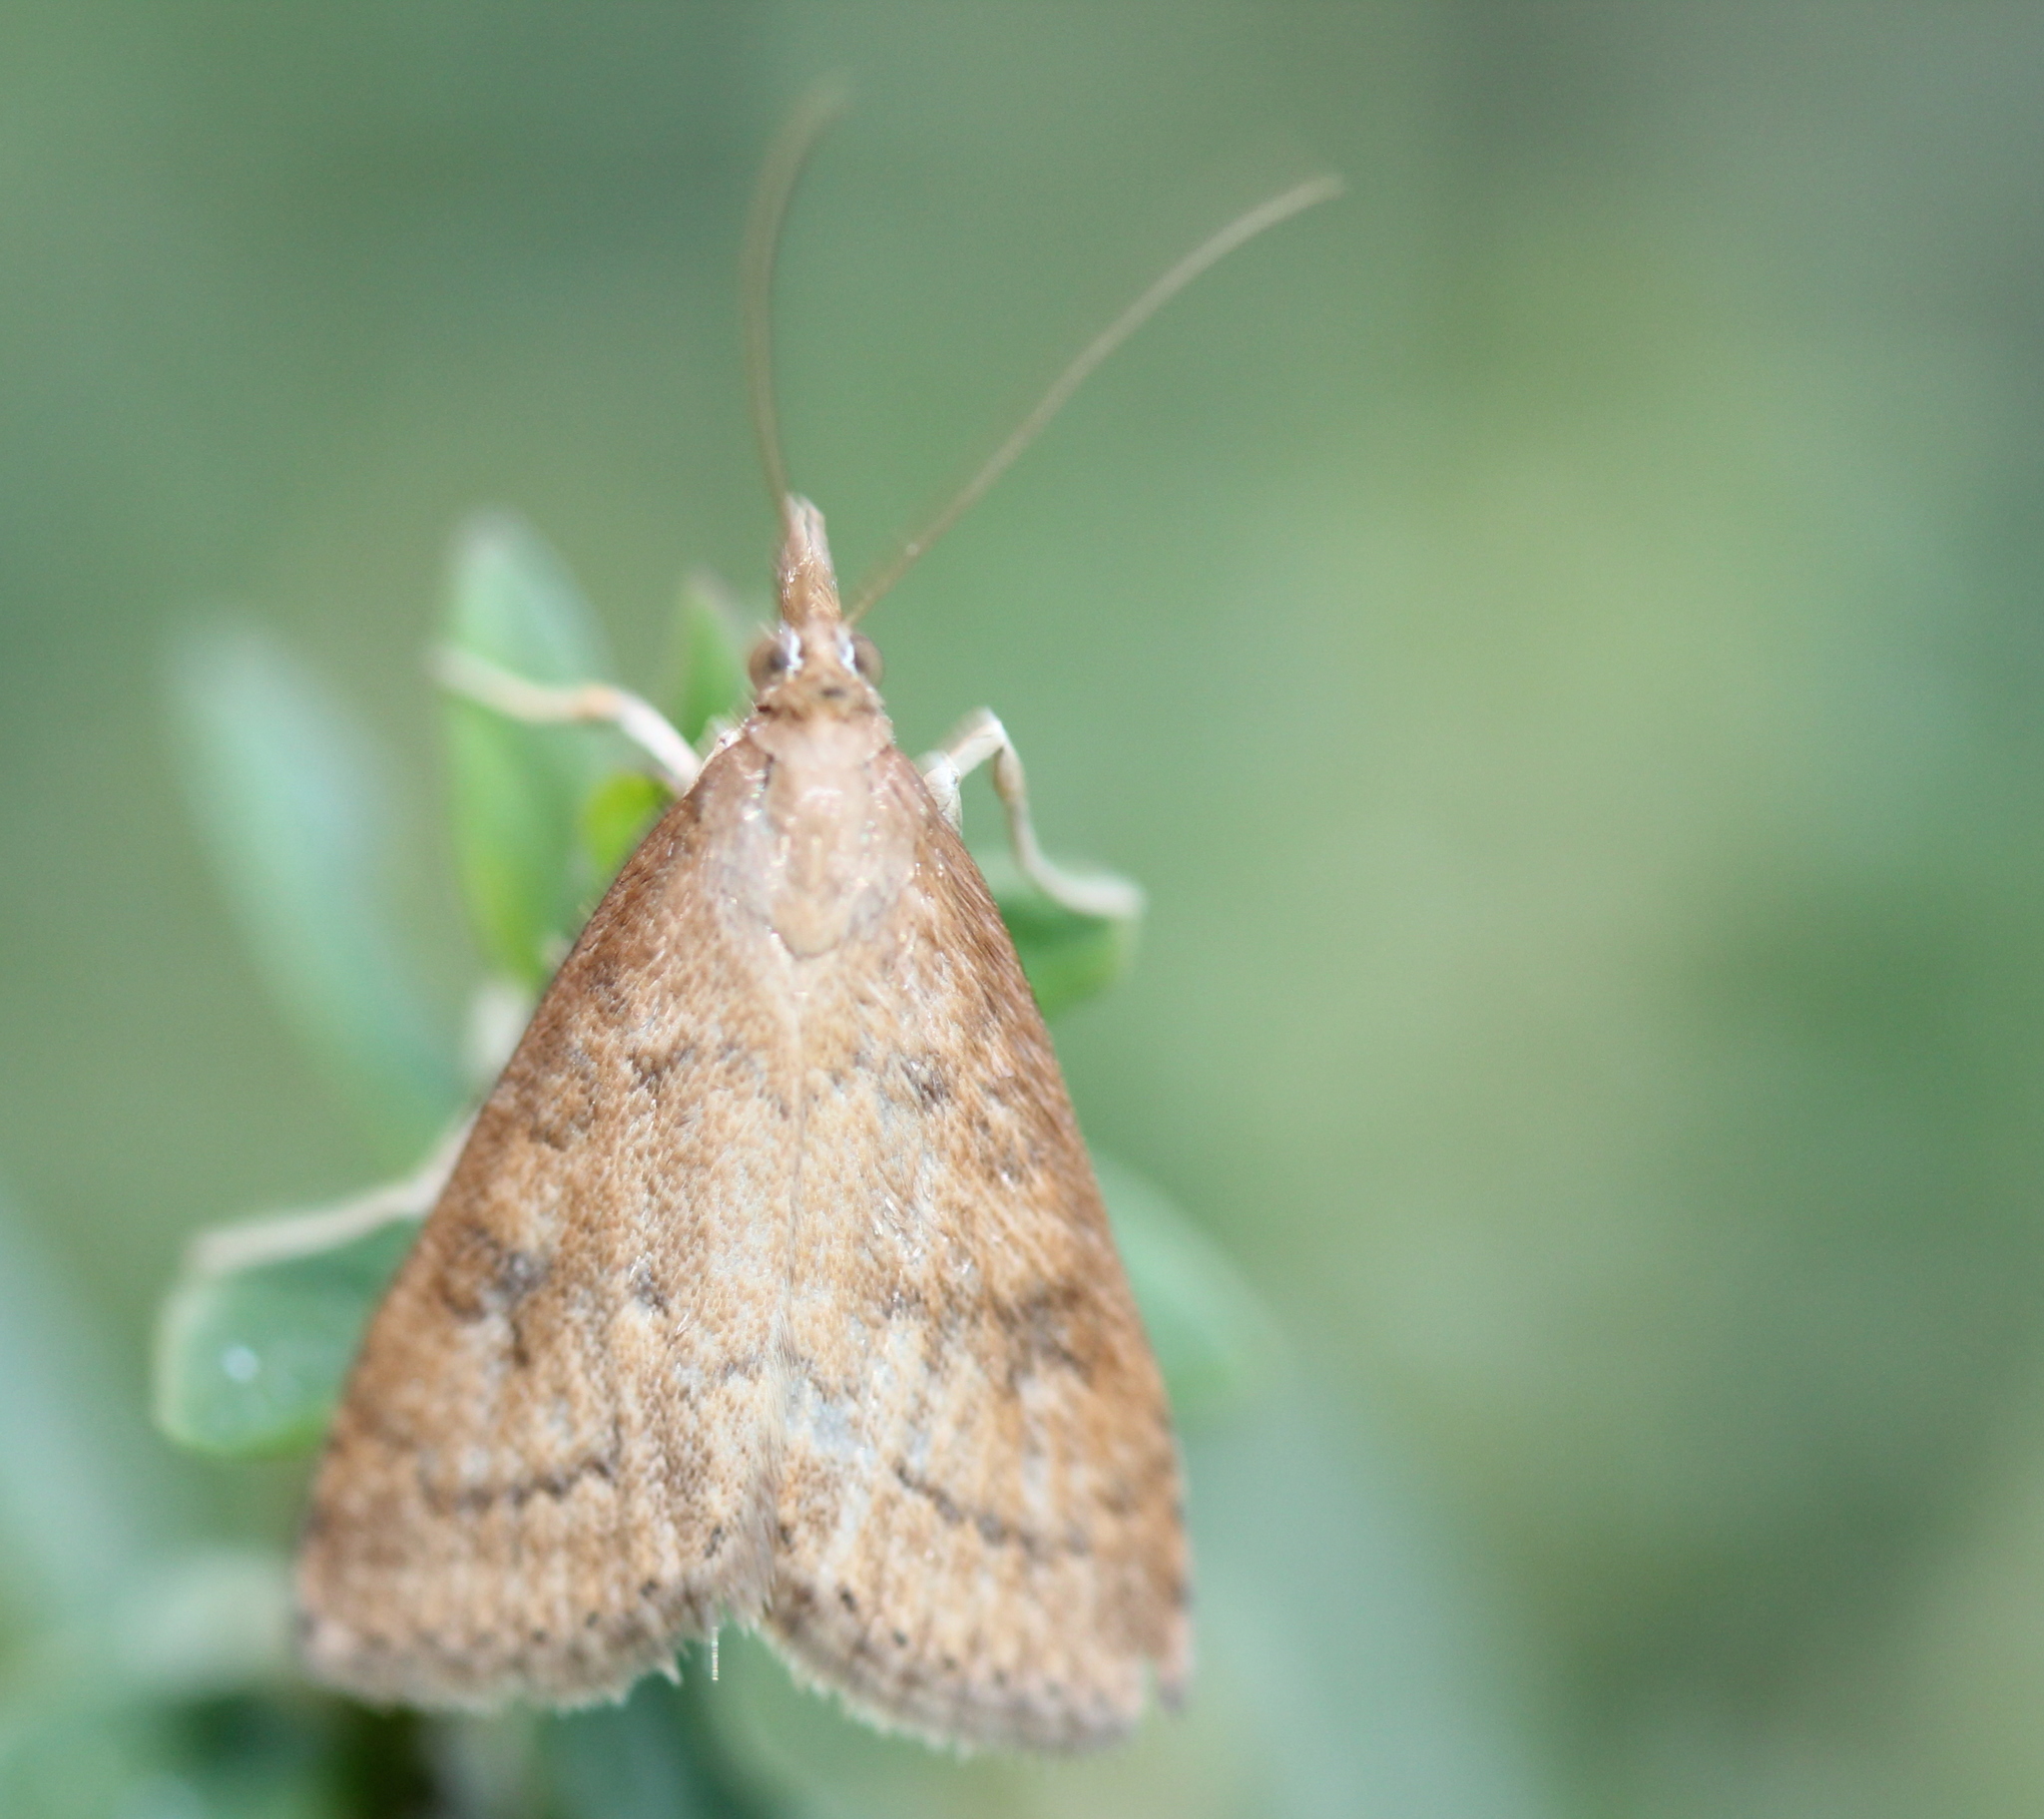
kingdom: Animalia
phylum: Arthropoda
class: Insecta
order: Lepidoptera
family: Crambidae
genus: Udea
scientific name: Udea rubigalis
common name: Celery leaftier moth
